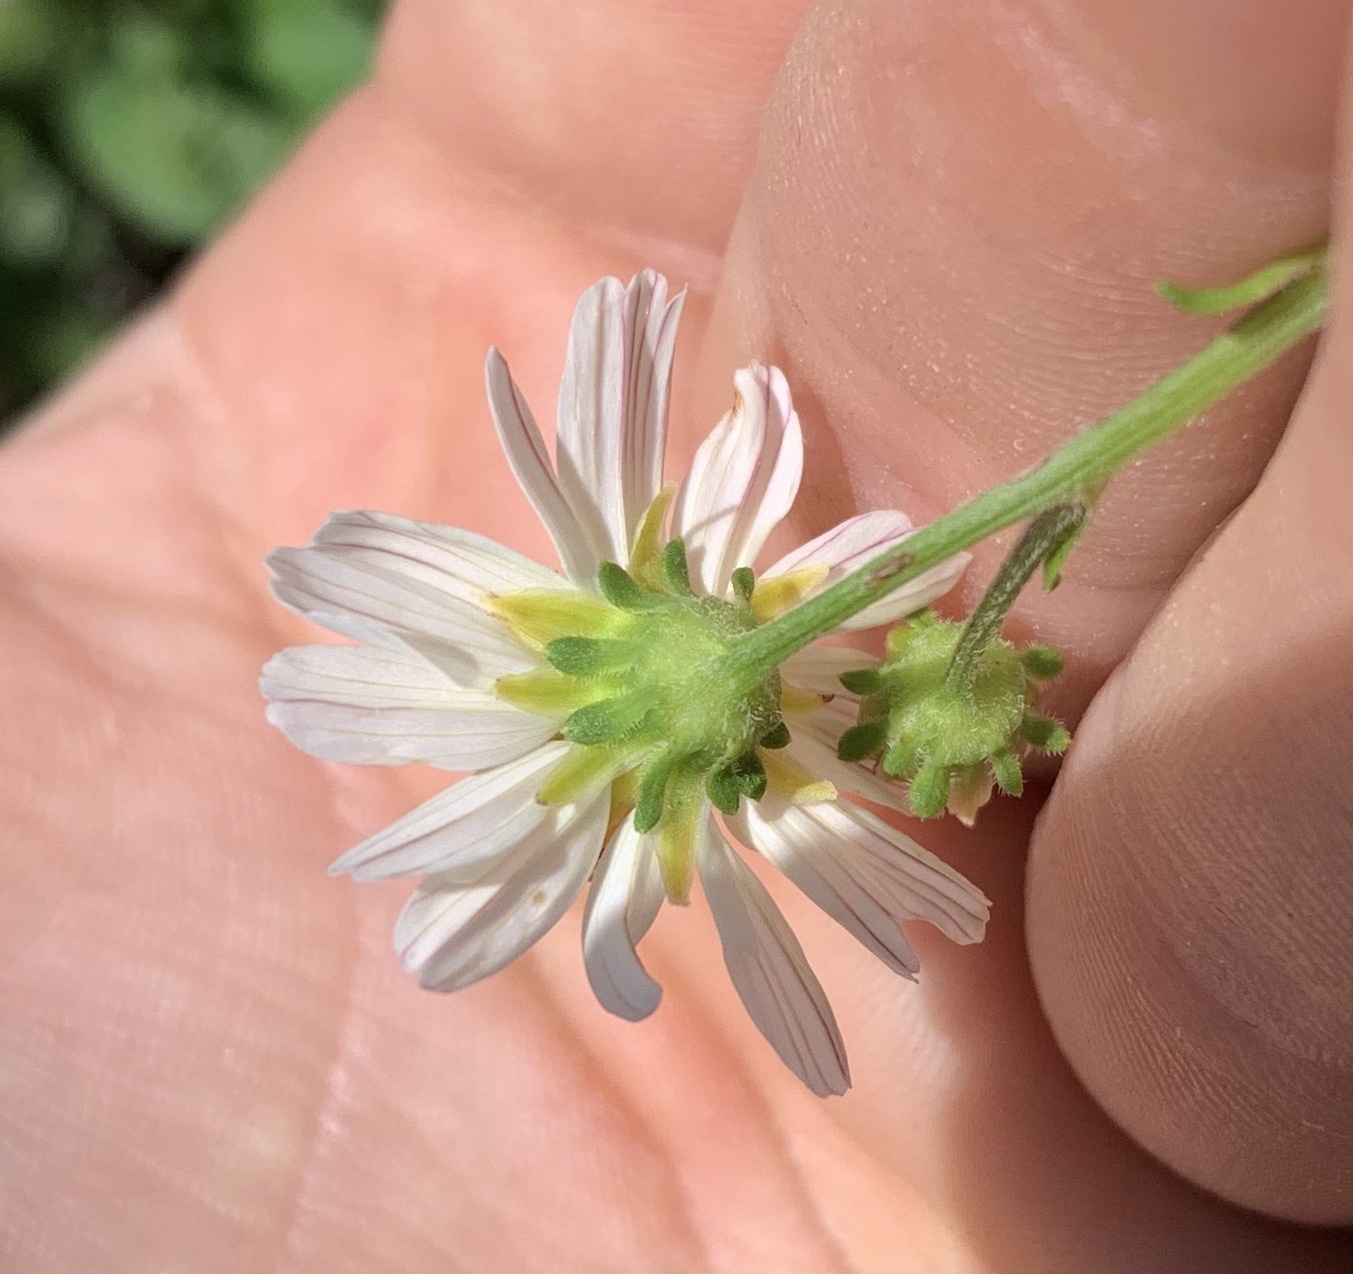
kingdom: Plantae
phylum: Tracheophyta
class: Magnoliopsida
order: Asterales
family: Asteraceae
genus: Bidens
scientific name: Bidens alba
